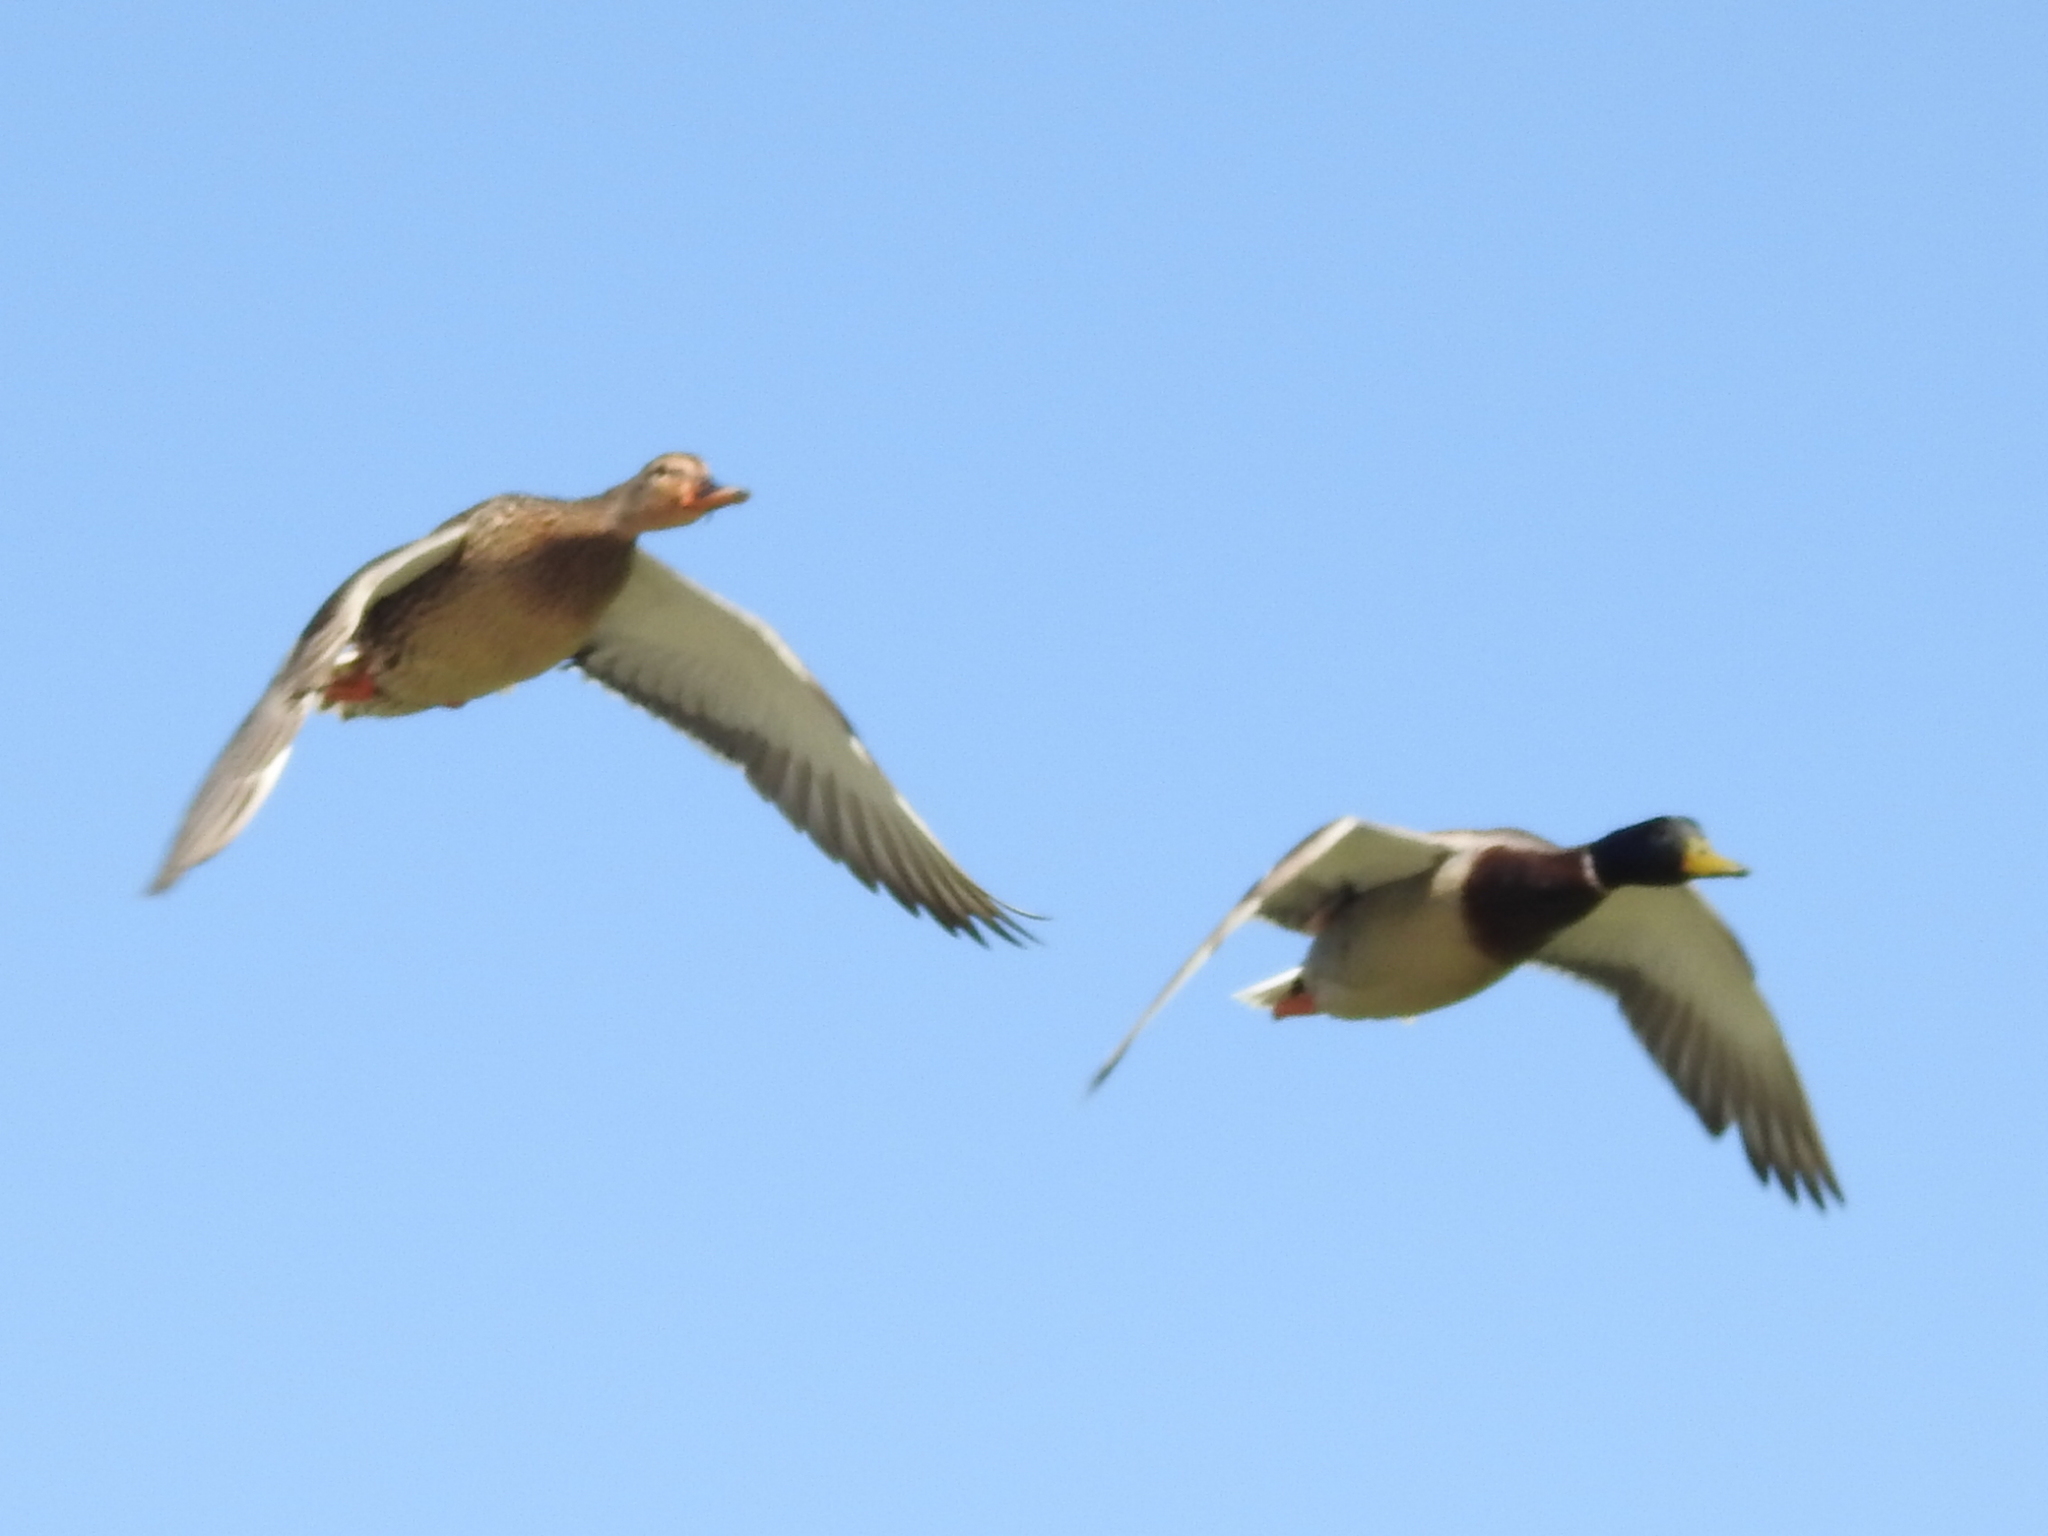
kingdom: Animalia
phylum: Chordata
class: Aves
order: Anseriformes
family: Anatidae
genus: Anas
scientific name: Anas platyrhynchos
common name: Mallard
